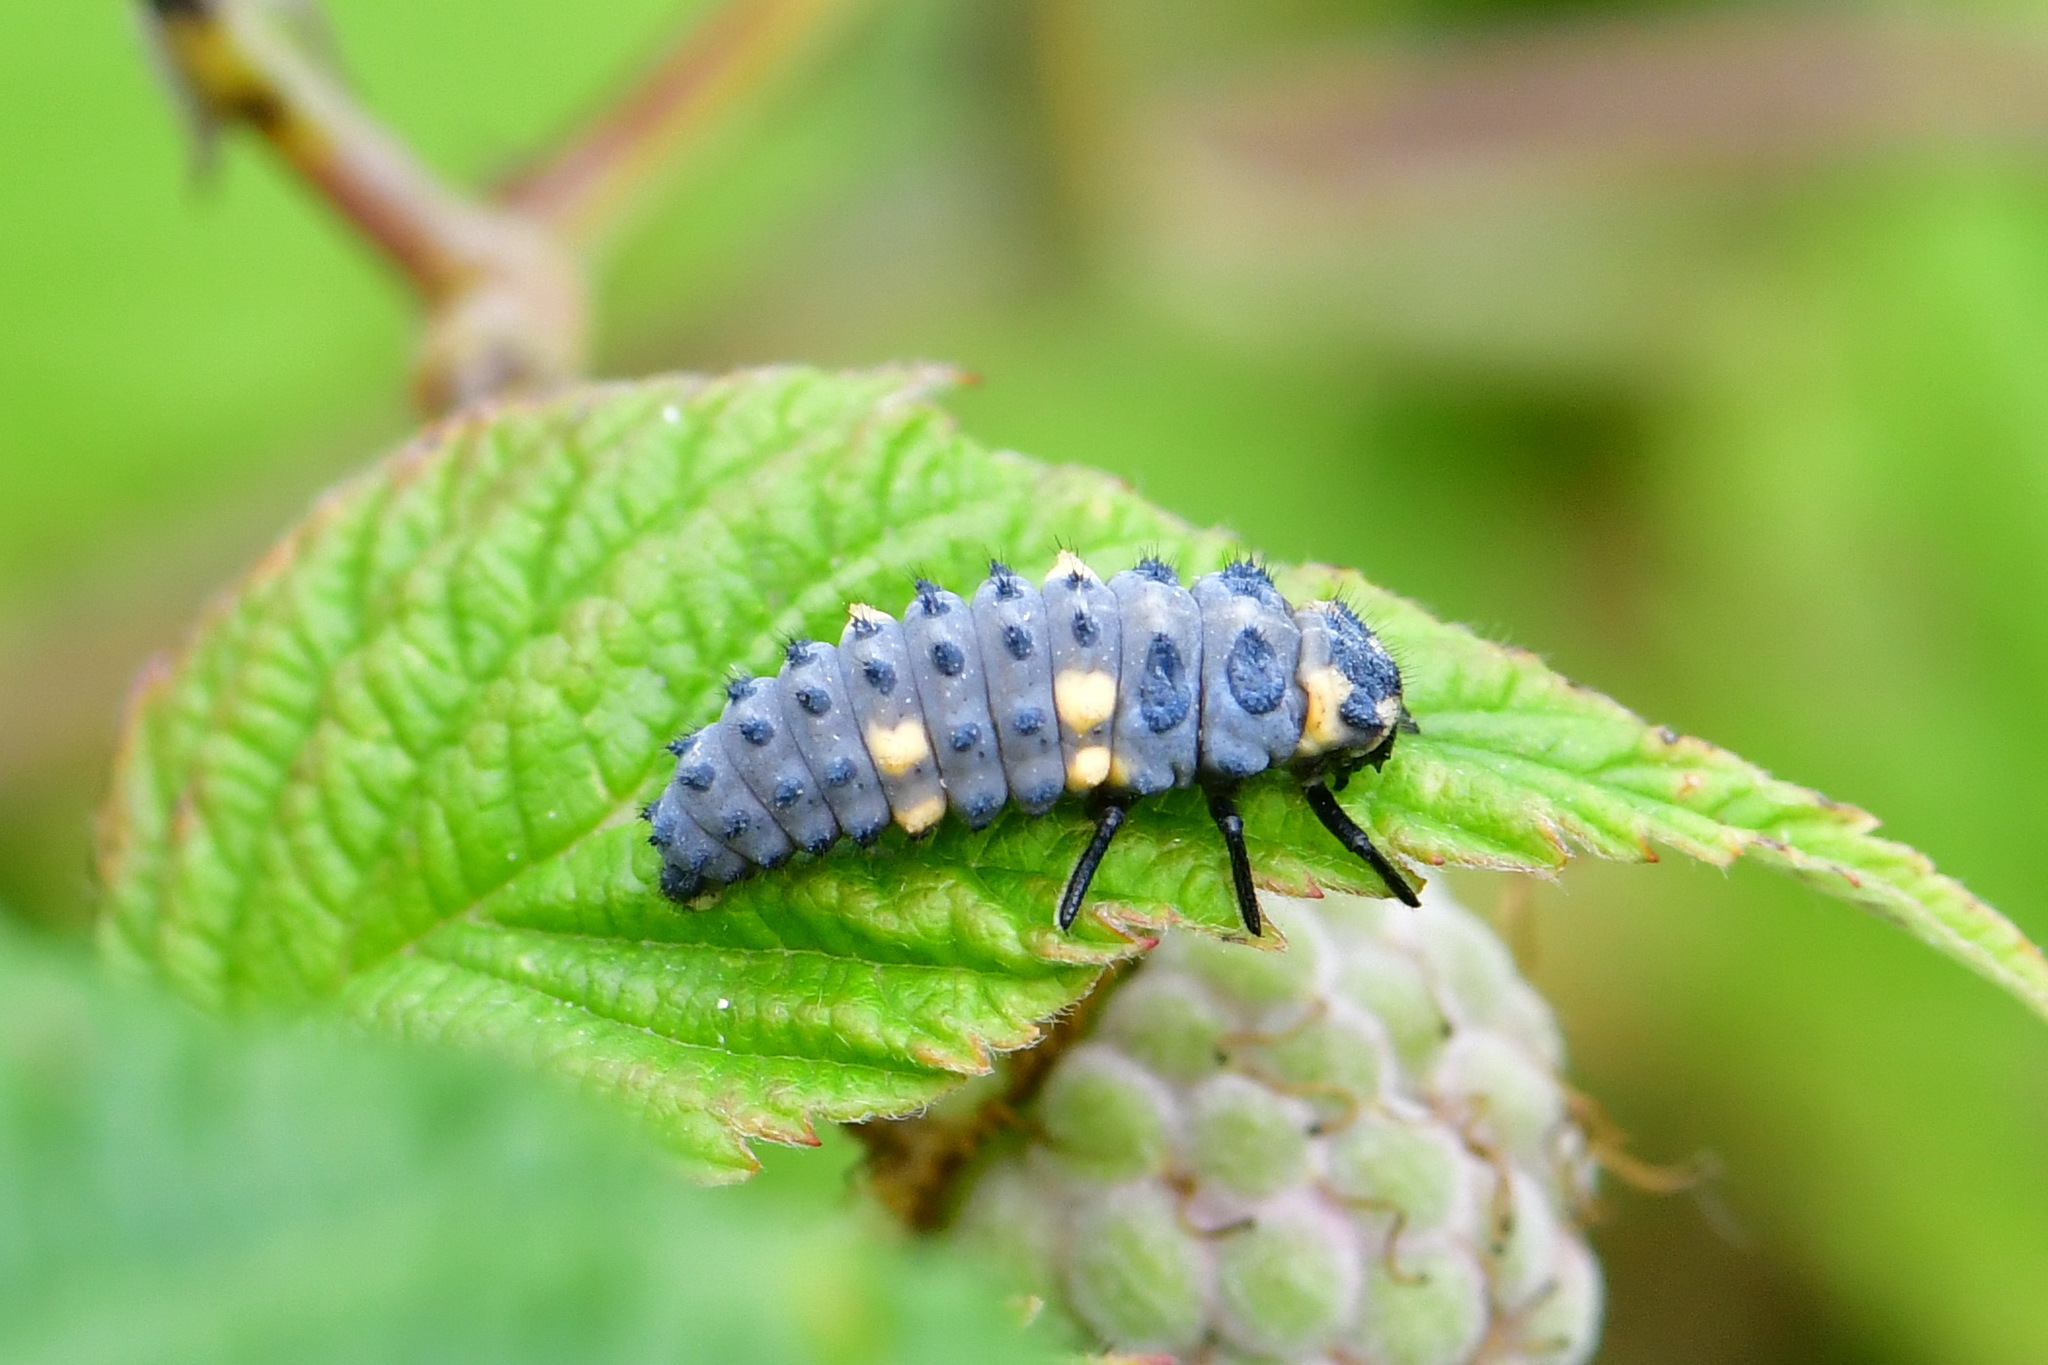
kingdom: Animalia
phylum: Arthropoda
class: Insecta
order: Coleoptera
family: Coccinellidae
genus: Coccinella
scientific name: Coccinella septempunctata
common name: Sevenspotted lady beetle
